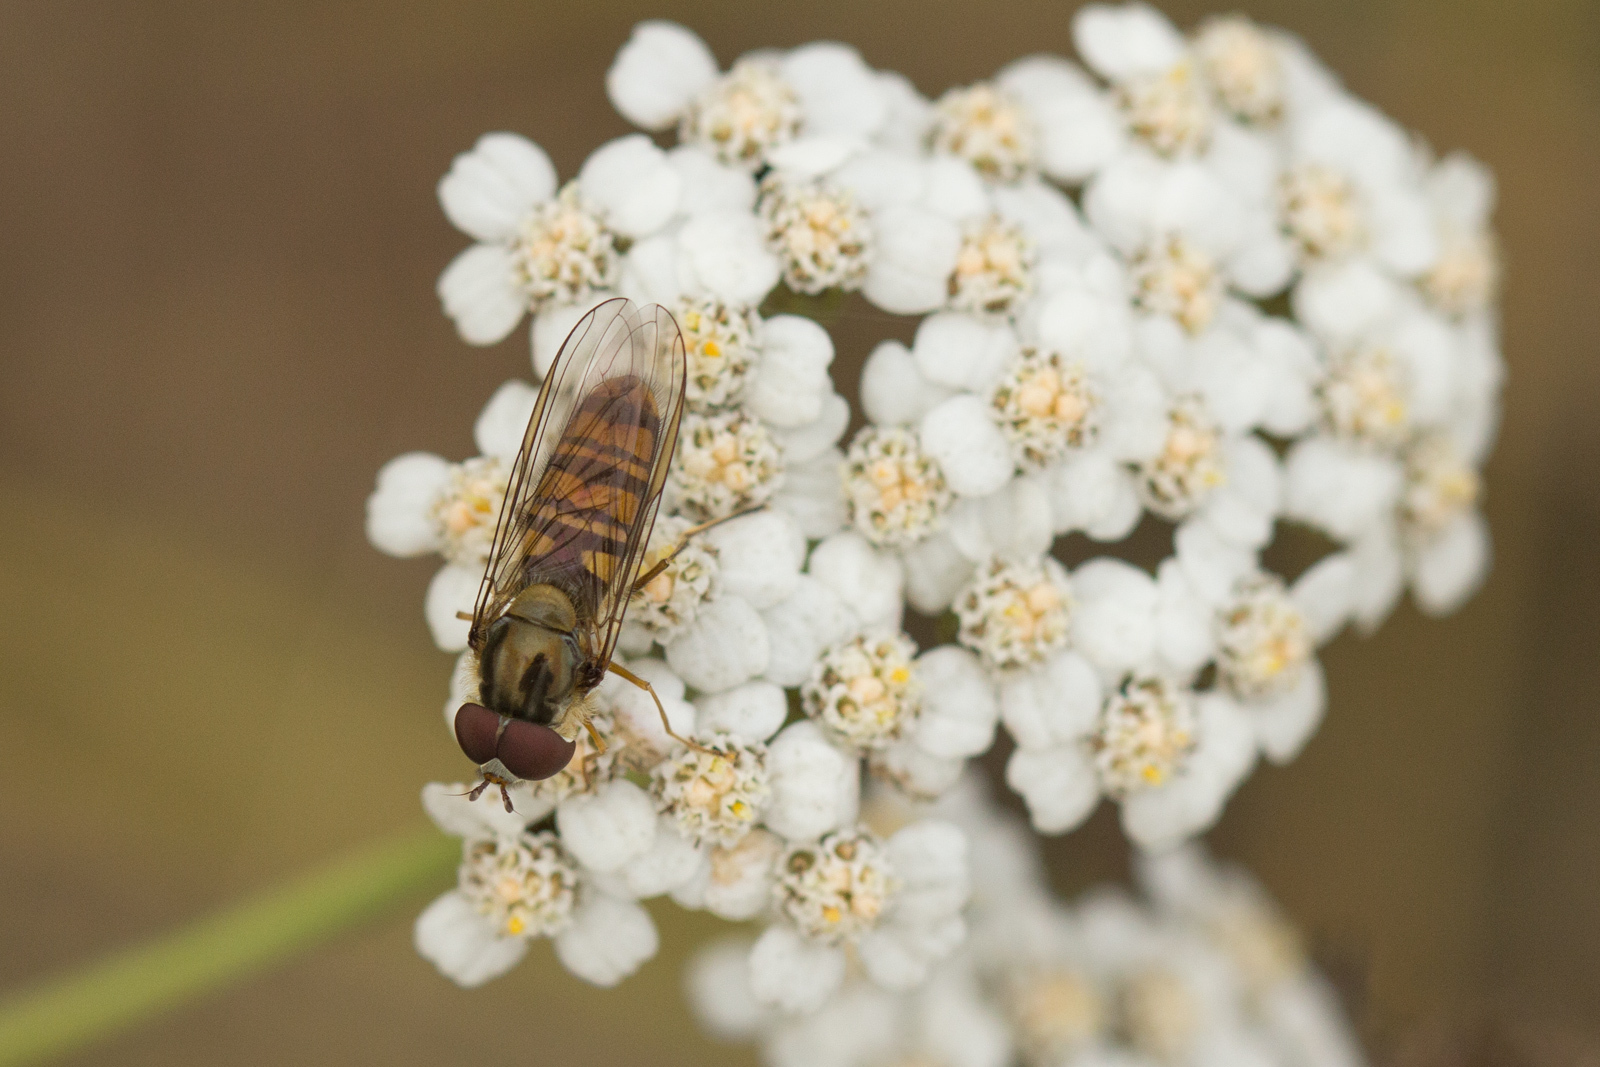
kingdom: Animalia
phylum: Arthropoda
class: Insecta
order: Diptera
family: Syrphidae
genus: Episyrphus
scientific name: Episyrphus balteatus
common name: Marmalade hoverfly
